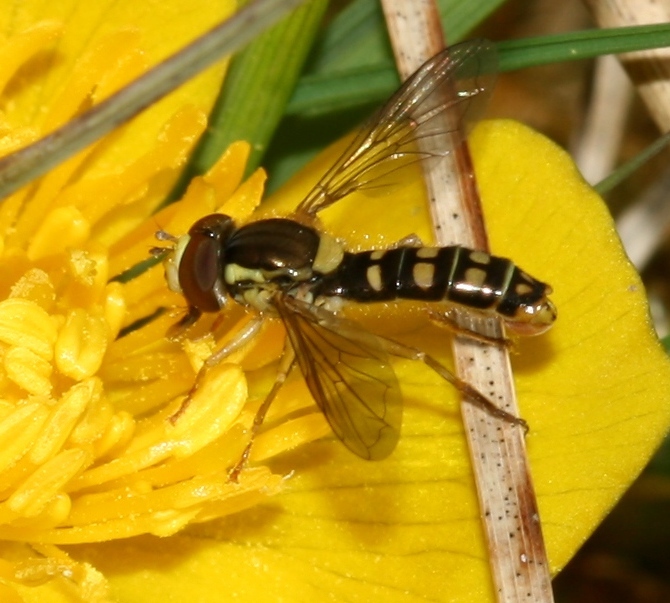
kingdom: Animalia
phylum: Arthropoda
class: Insecta
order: Diptera
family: Syrphidae
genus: Sphaerophoria
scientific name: Sphaerophoria
